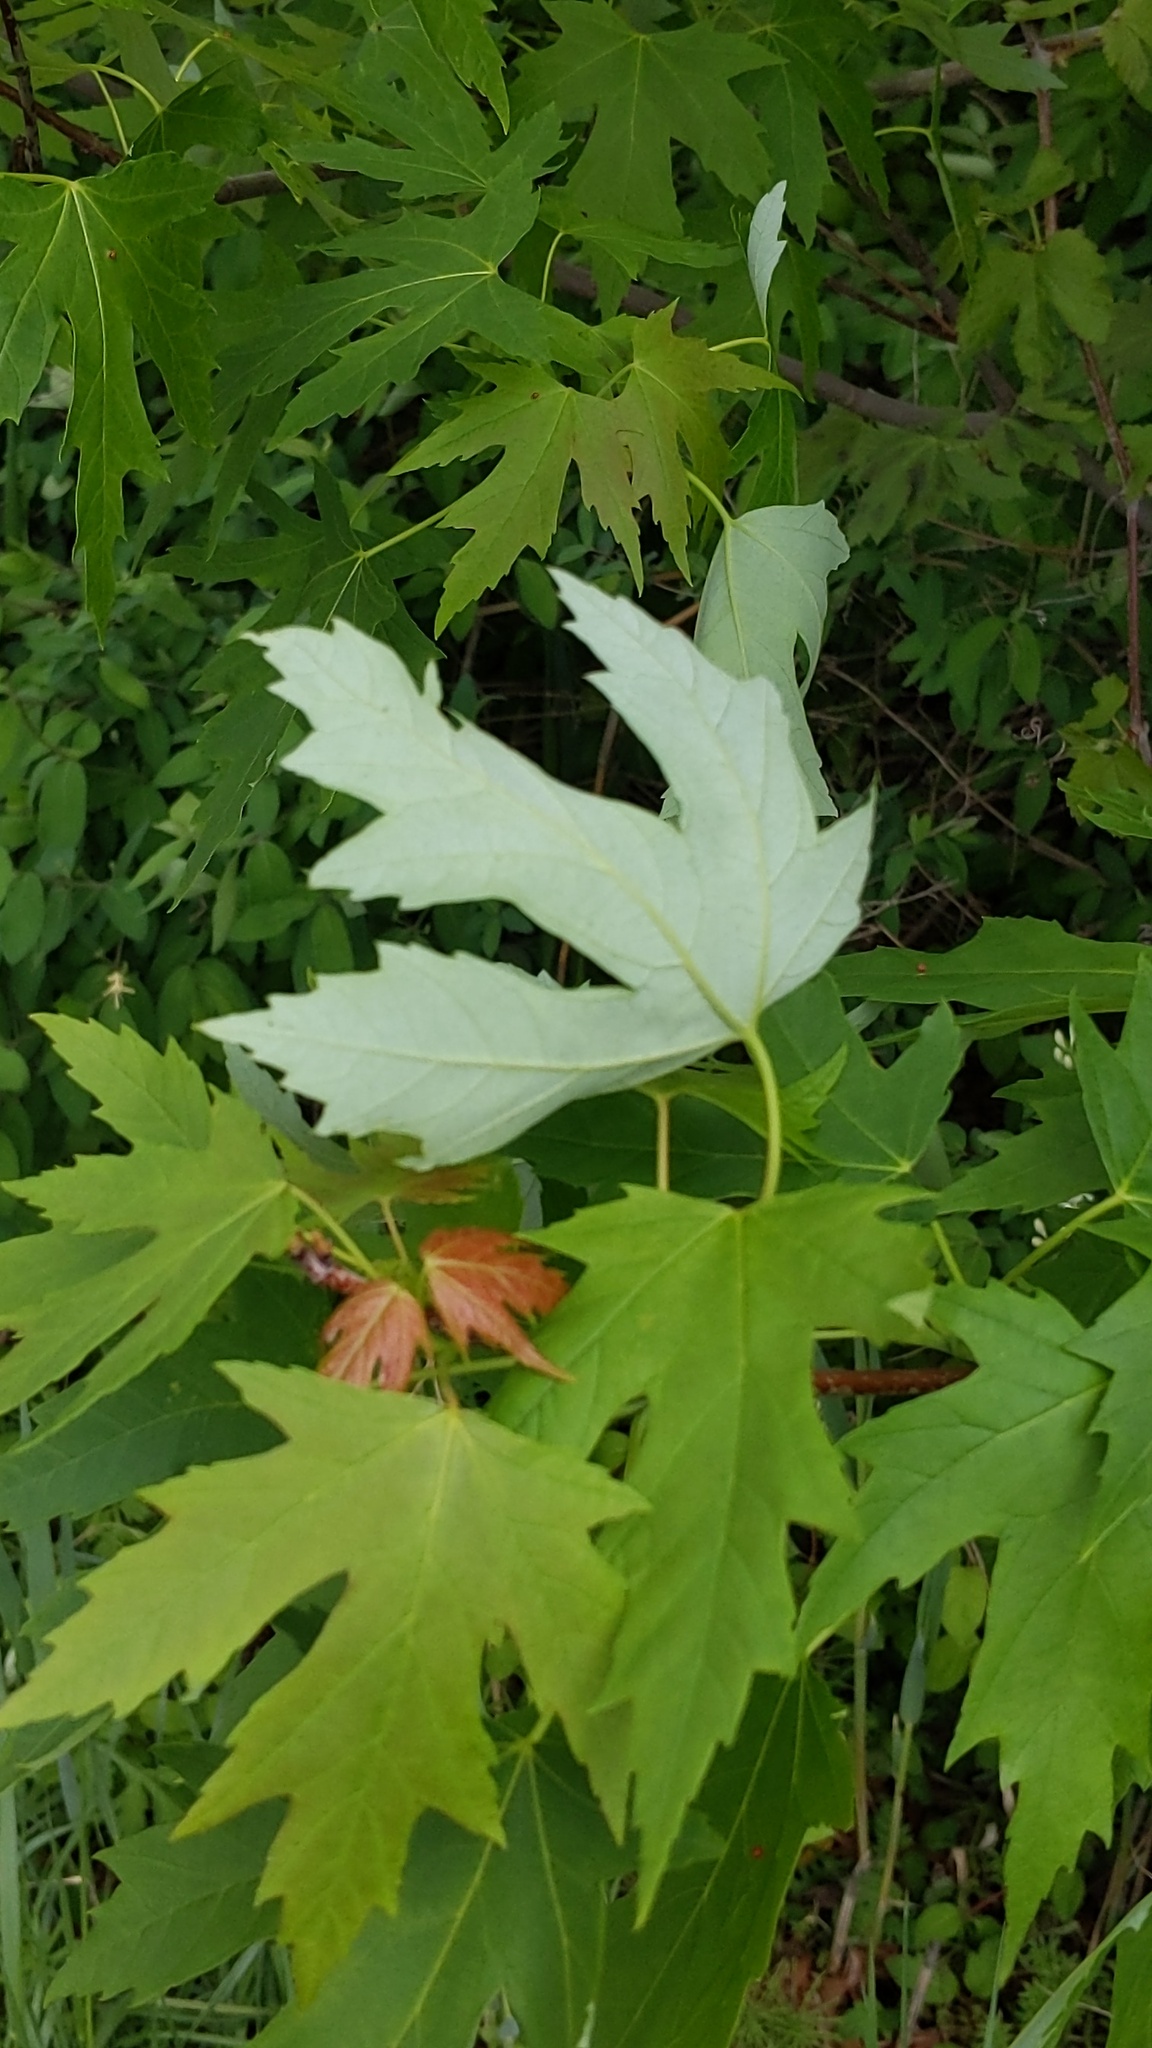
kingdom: Plantae
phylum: Tracheophyta
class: Magnoliopsida
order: Sapindales
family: Sapindaceae
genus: Acer
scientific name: Acer saccharinum
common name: Silver maple
